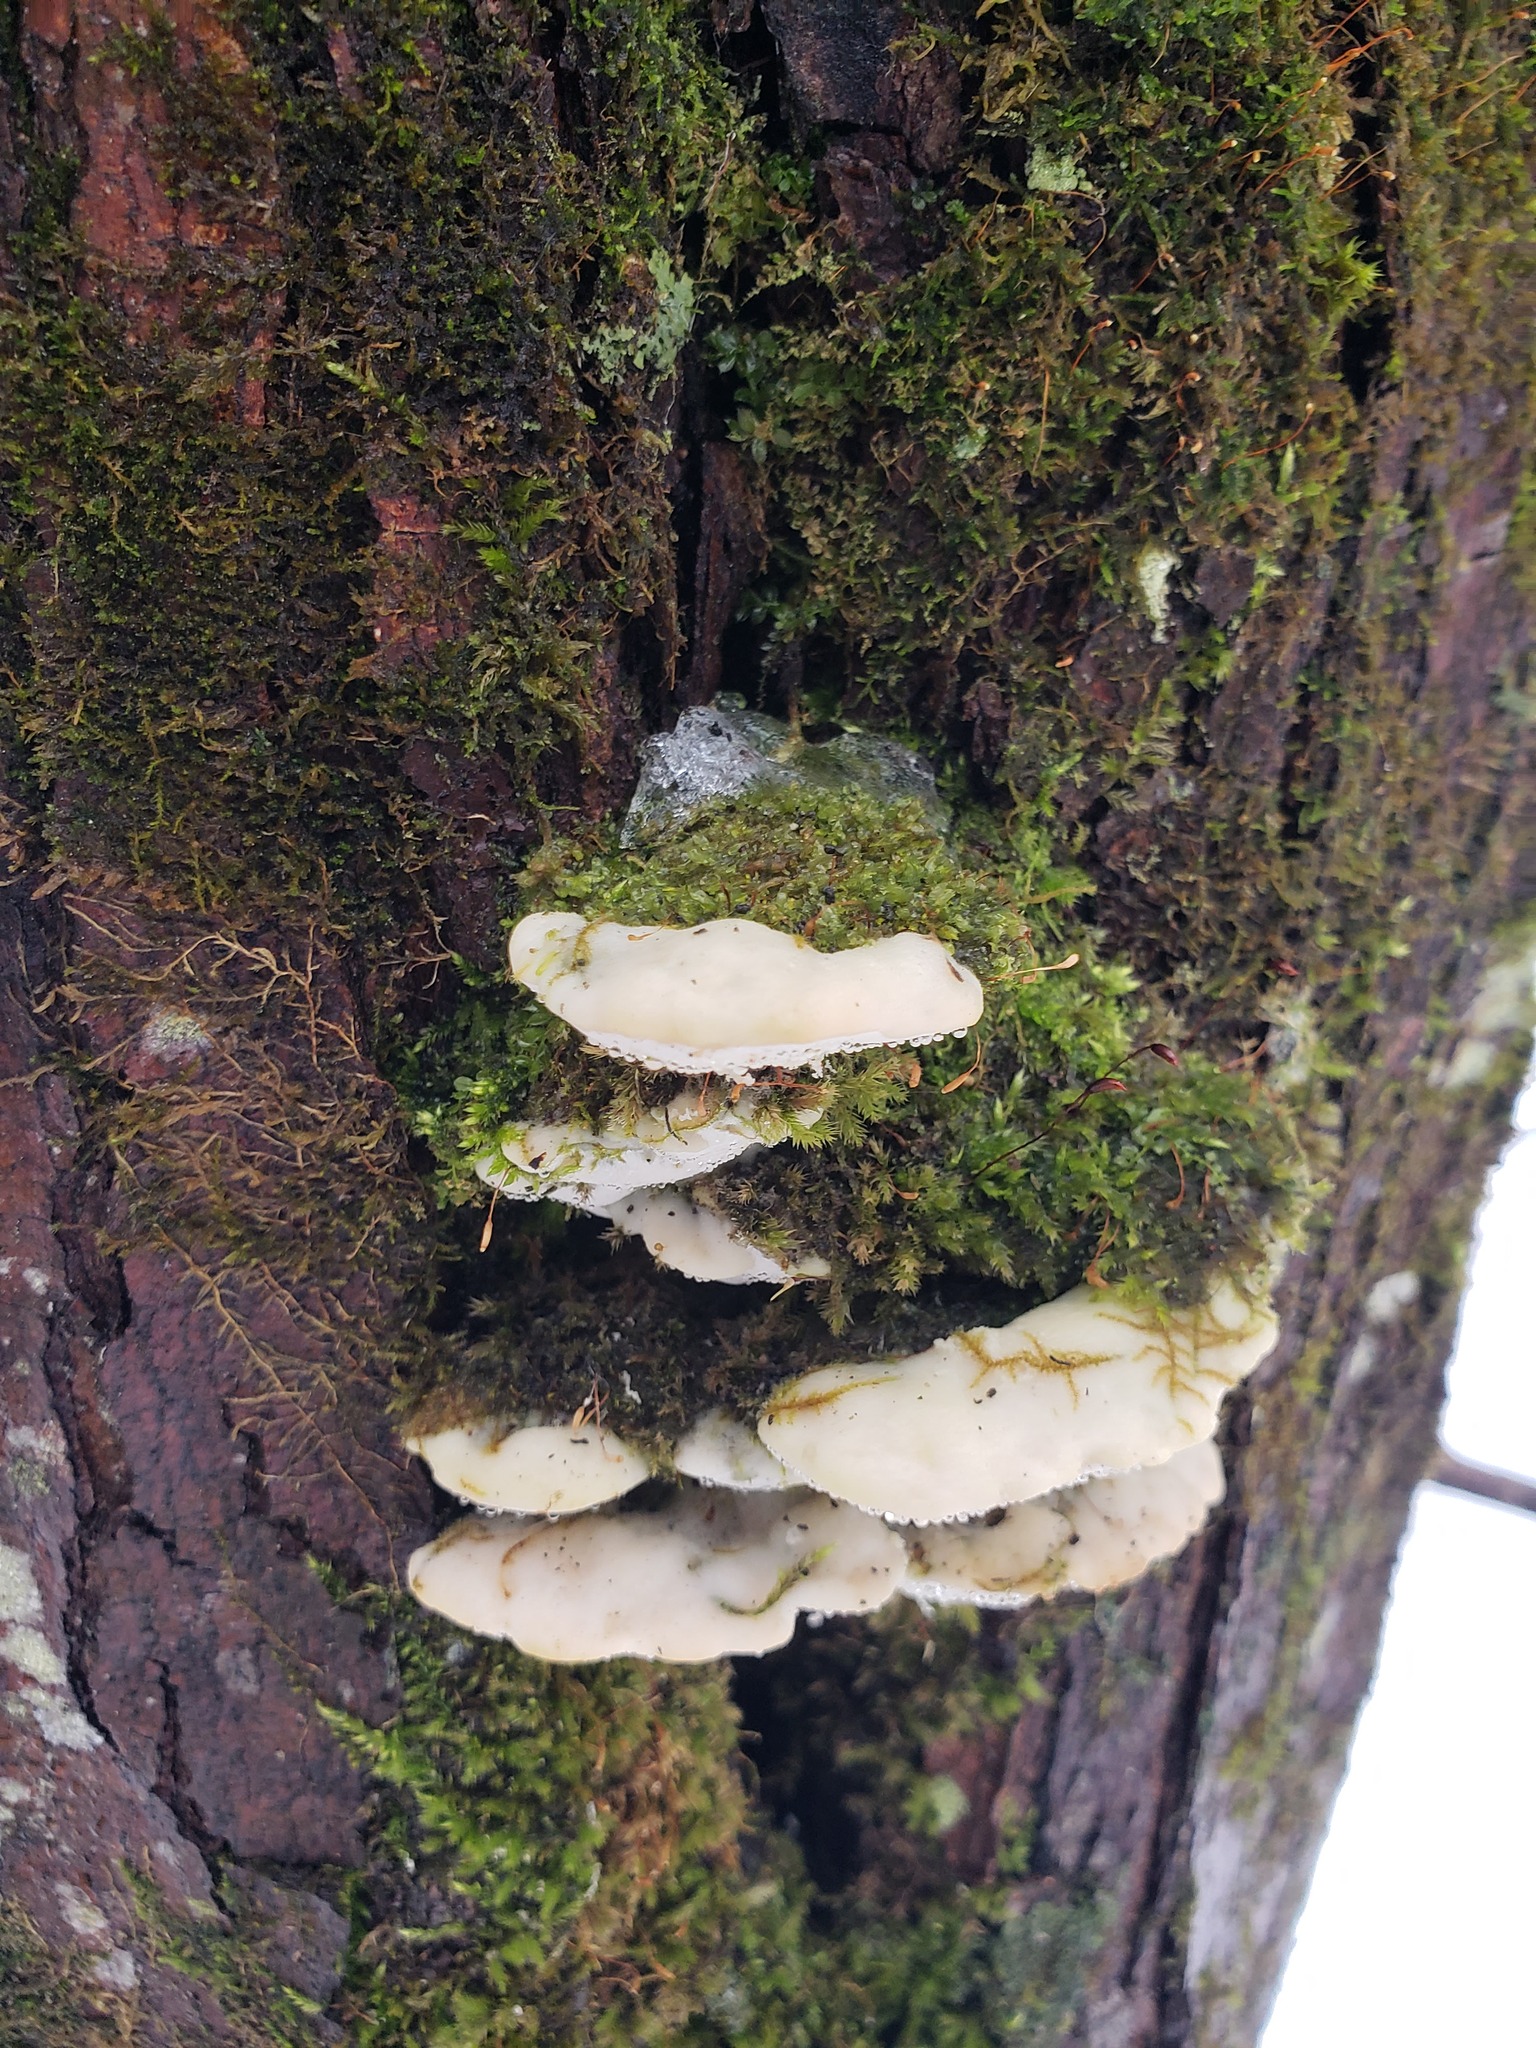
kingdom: Fungi
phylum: Basidiomycota
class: Agaricomycetes
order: Hymenochaetales
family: Oxyporaceae
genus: Oxyporus
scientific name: Oxyporus populinus
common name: Poplar bracket
